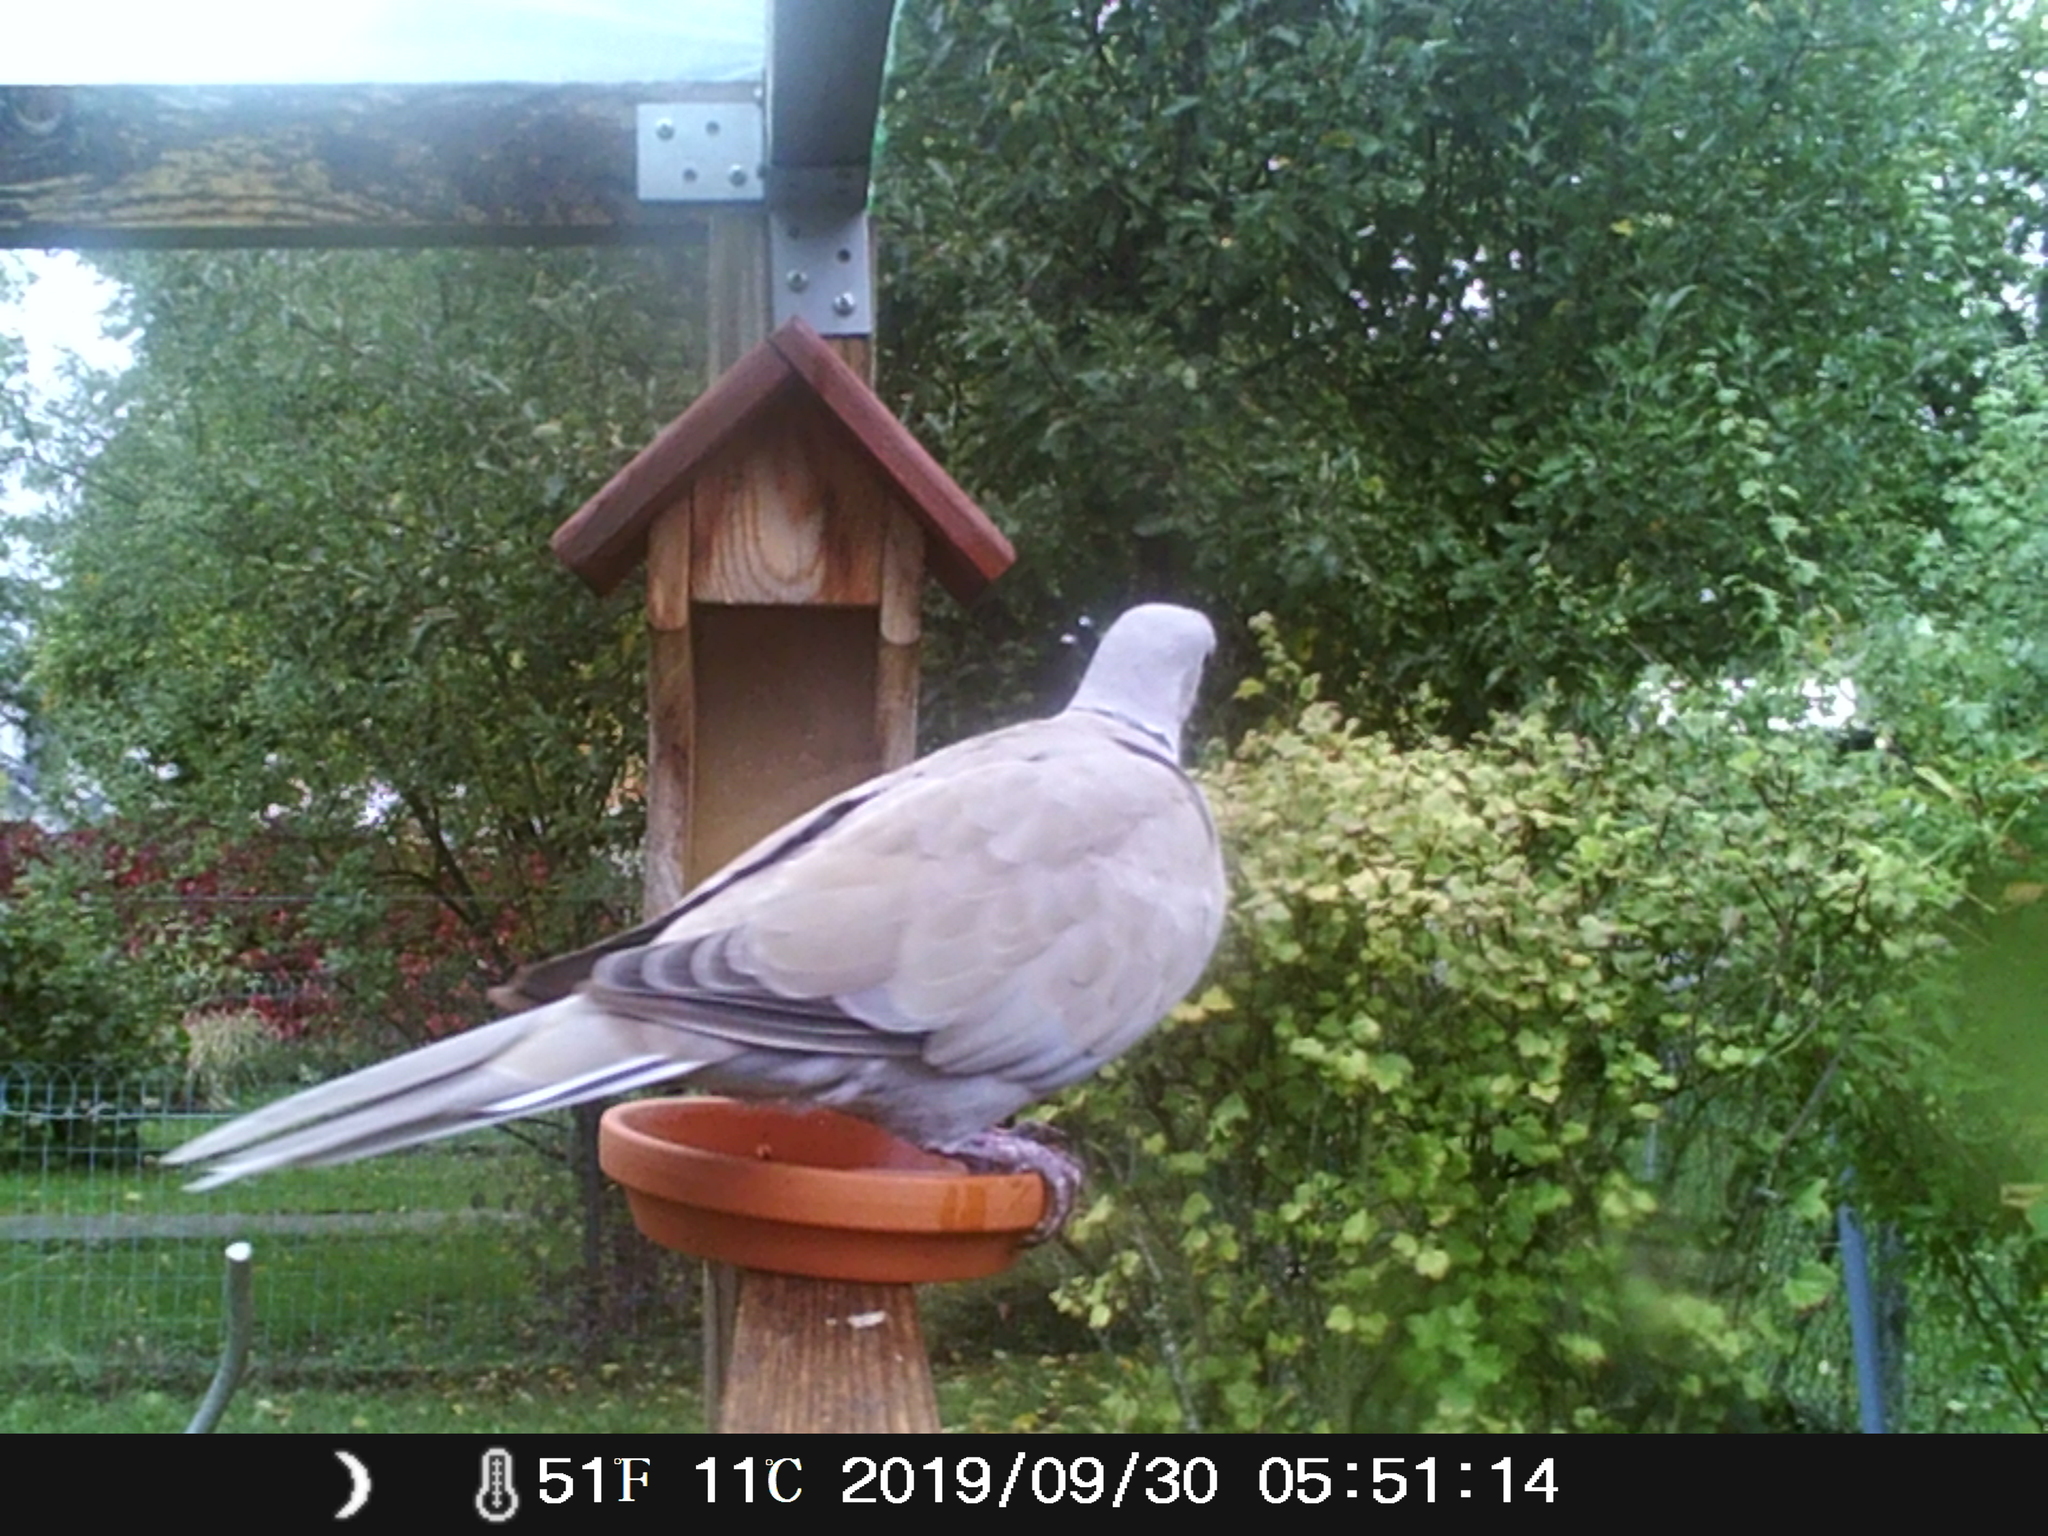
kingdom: Animalia
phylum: Chordata
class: Aves
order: Columbiformes
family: Columbidae
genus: Streptopelia
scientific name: Streptopelia decaocto
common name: Eurasian collared dove
